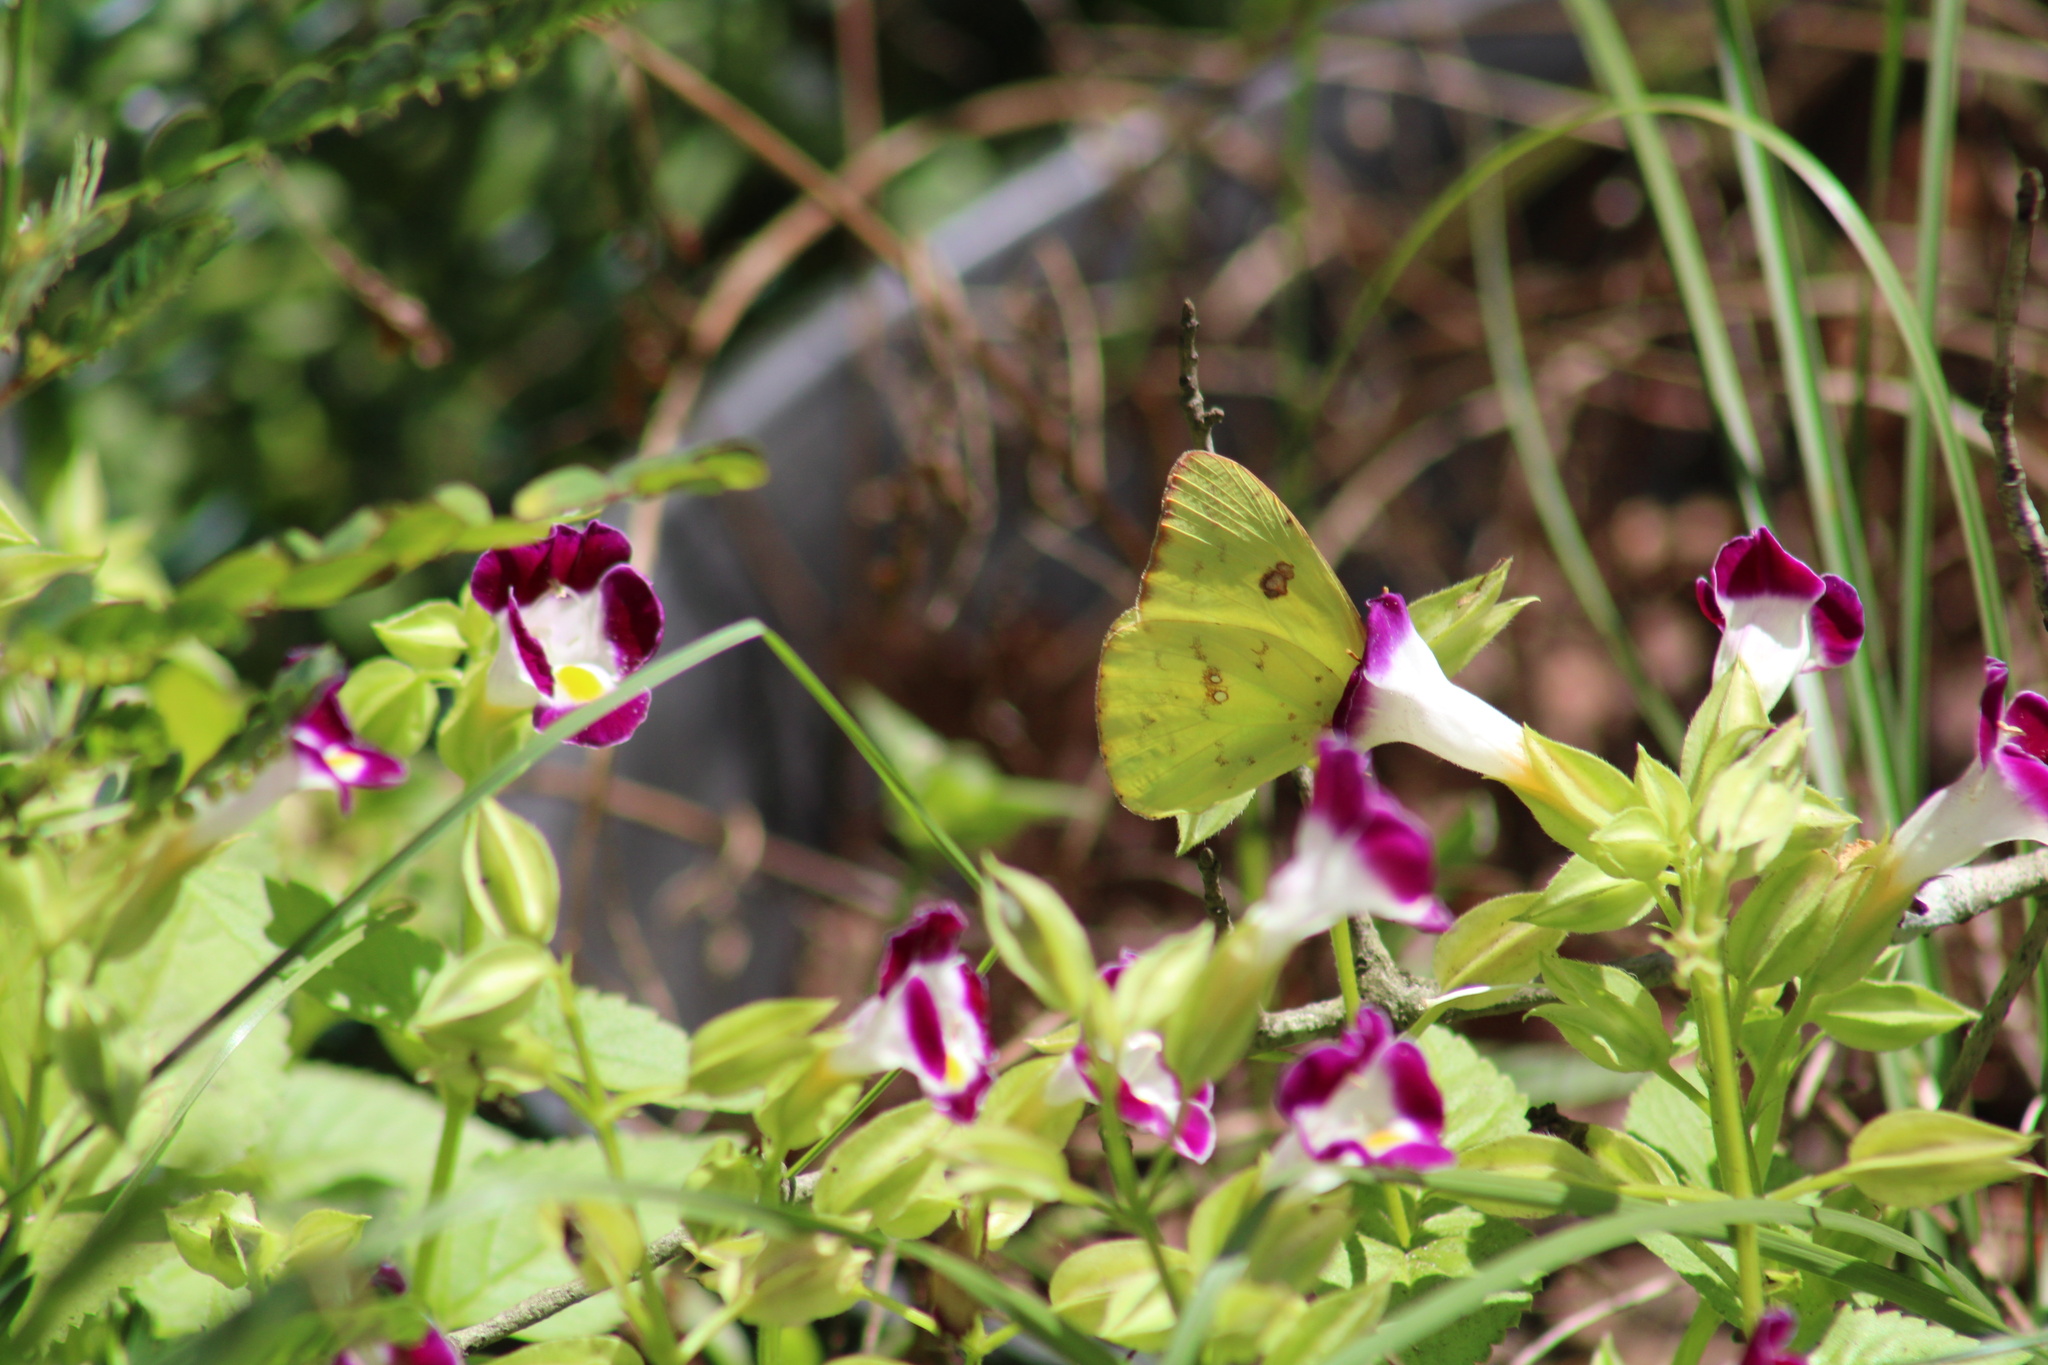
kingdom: Animalia
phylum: Arthropoda
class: Insecta
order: Lepidoptera
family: Pieridae
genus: Phoebis
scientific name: Phoebis sennae
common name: Cloudless sulphur
